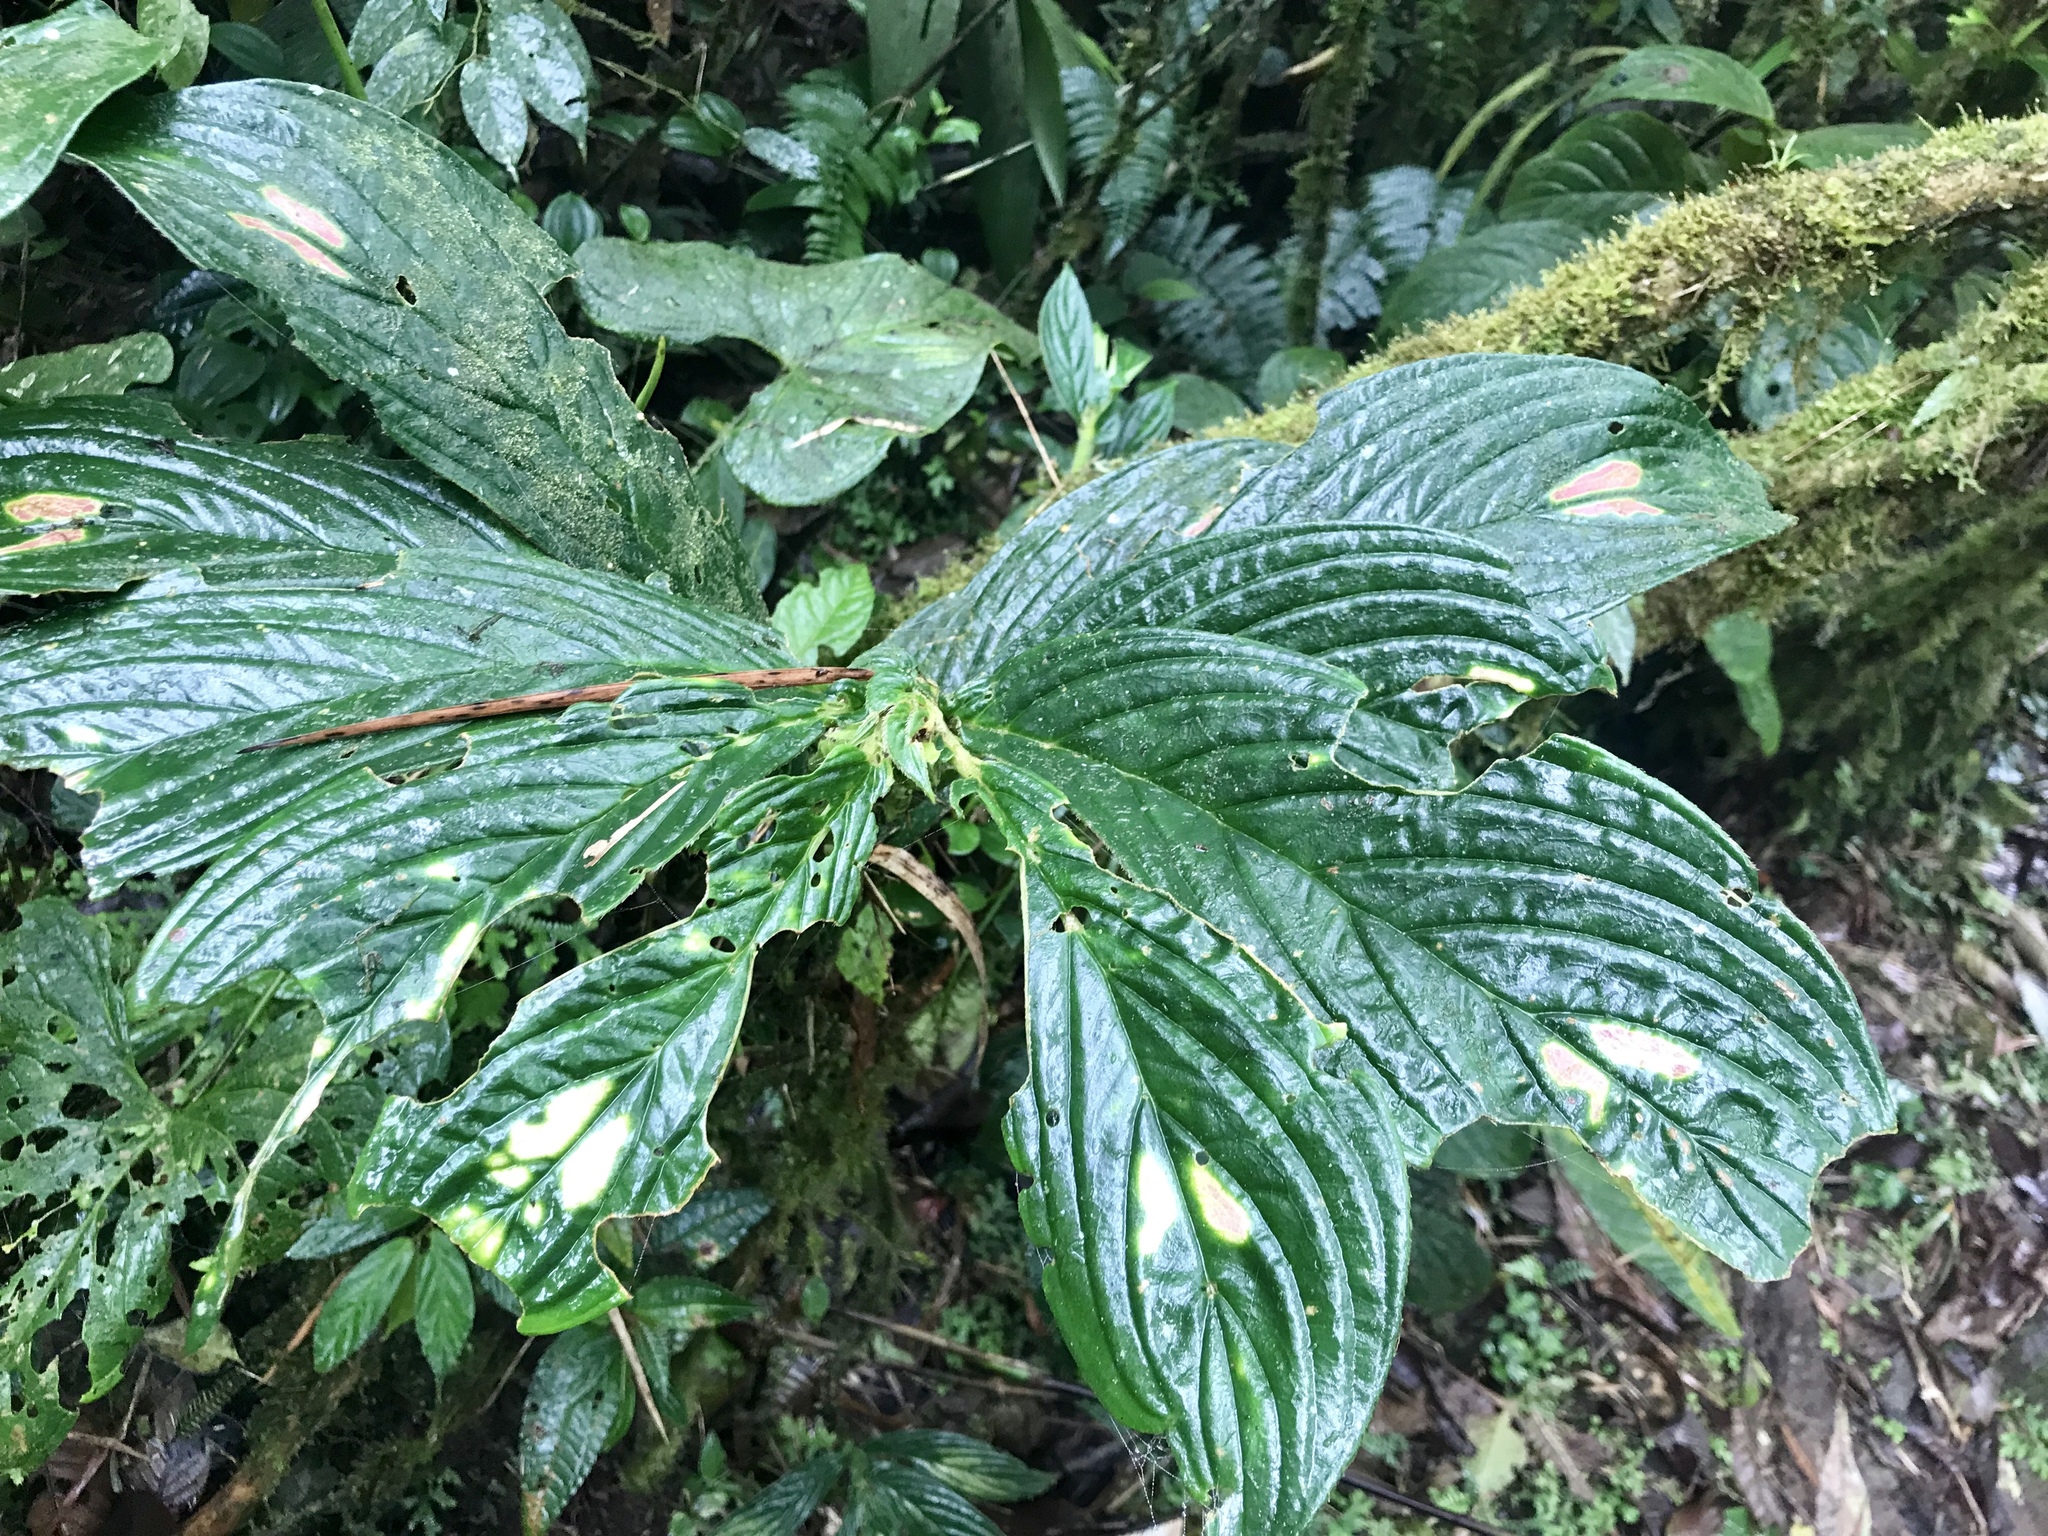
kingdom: Plantae
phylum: Tracheophyta
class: Magnoliopsida
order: Lamiales
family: Gesneriaceae
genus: Columnea
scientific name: Columnea consanguinea
